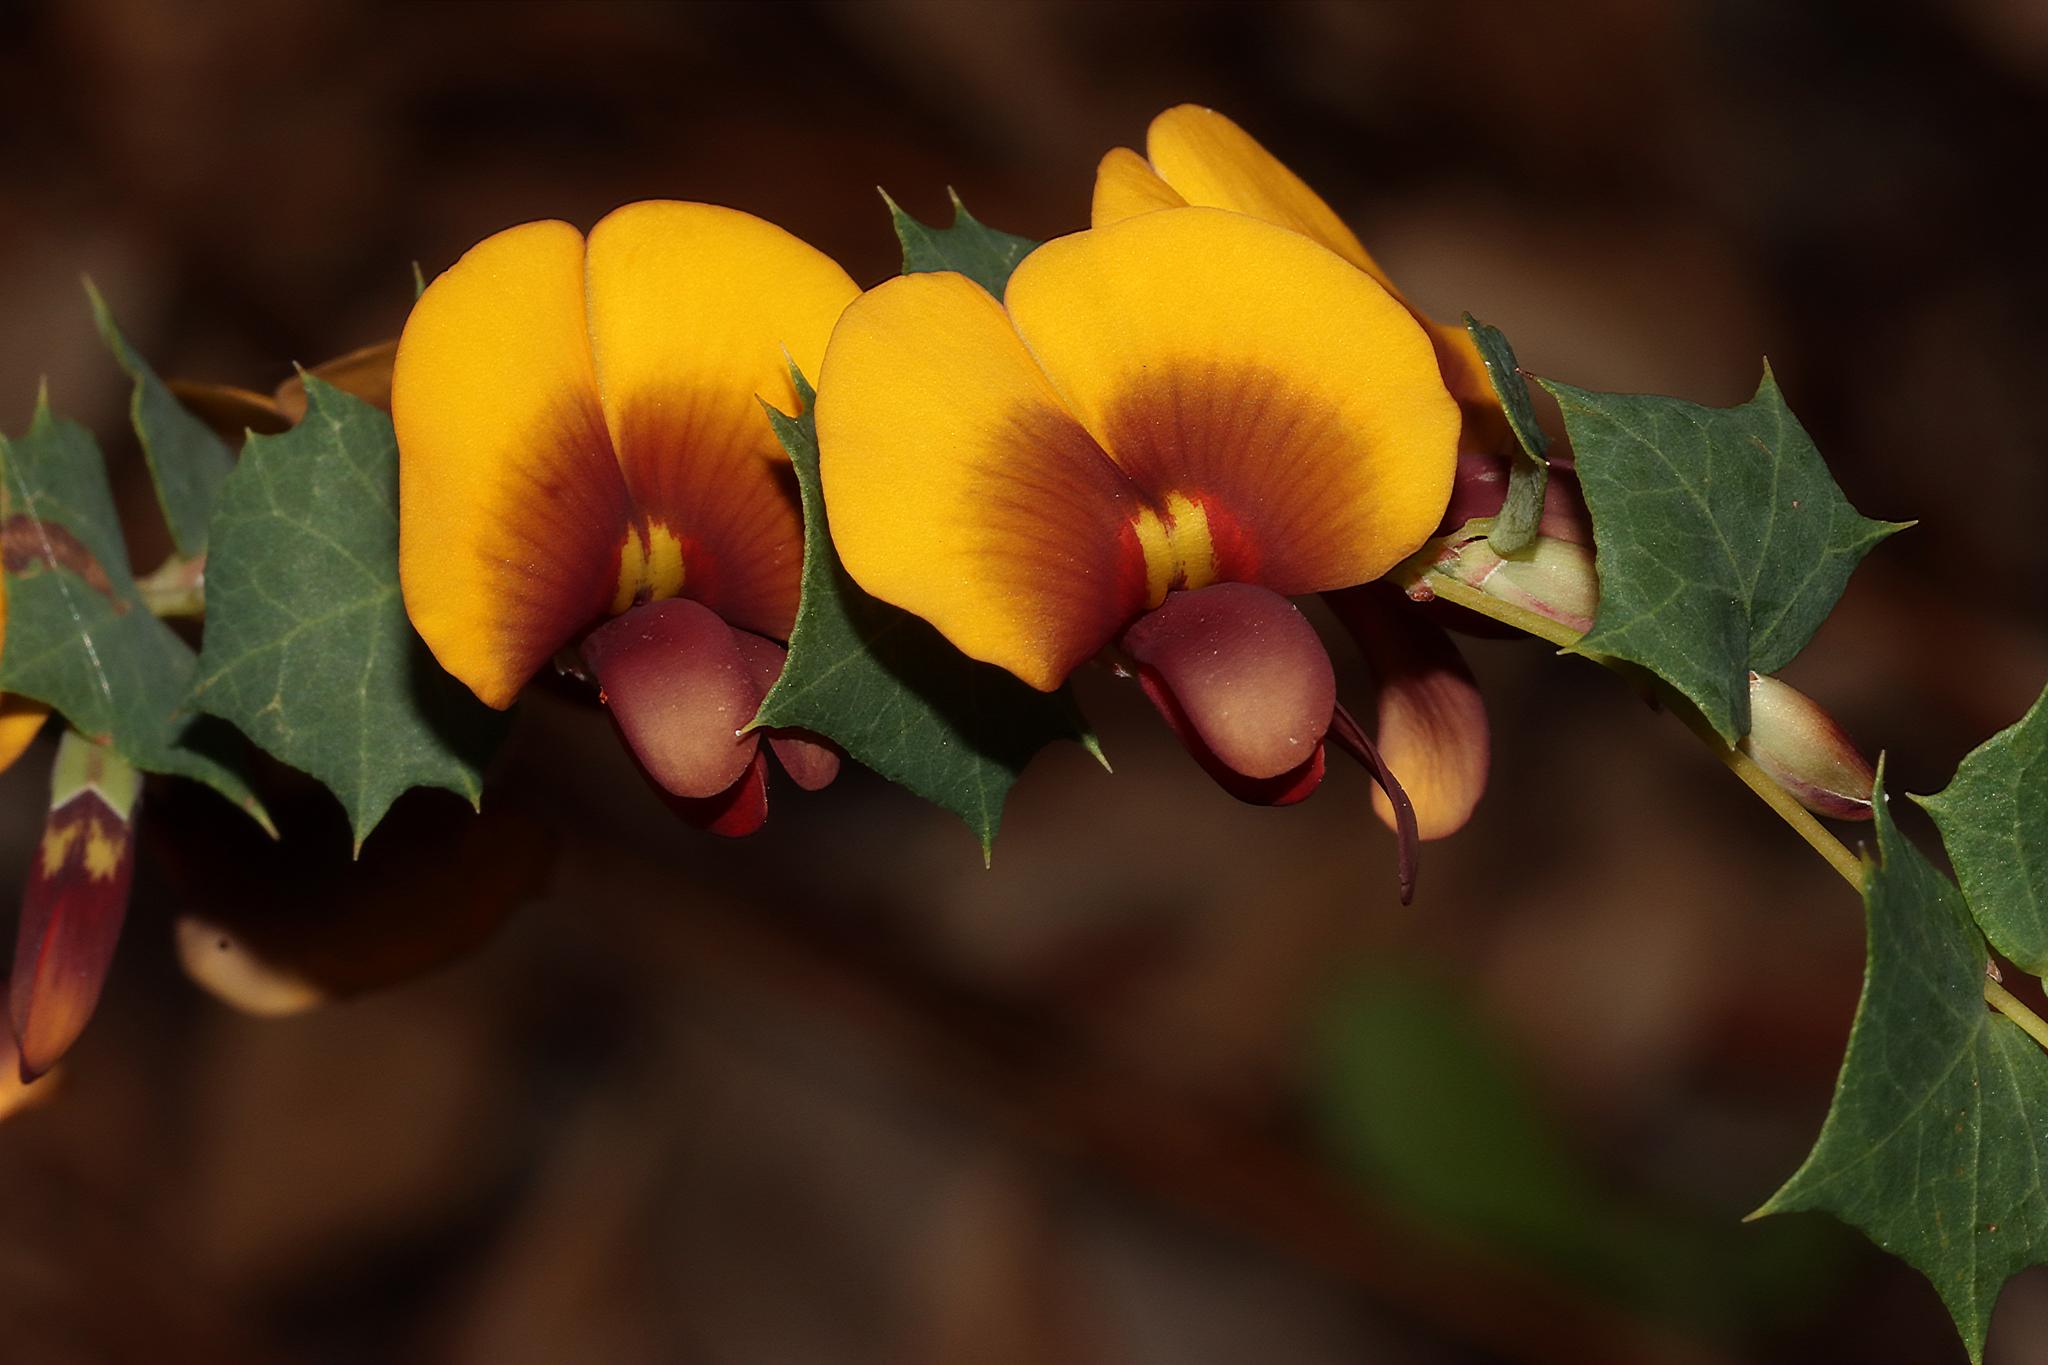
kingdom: Plantae
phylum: Tracheophyta
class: Magnoliopsida
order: Fabales
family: Fabaceae
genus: Bossiaea
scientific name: Bossiaea aquifolium
